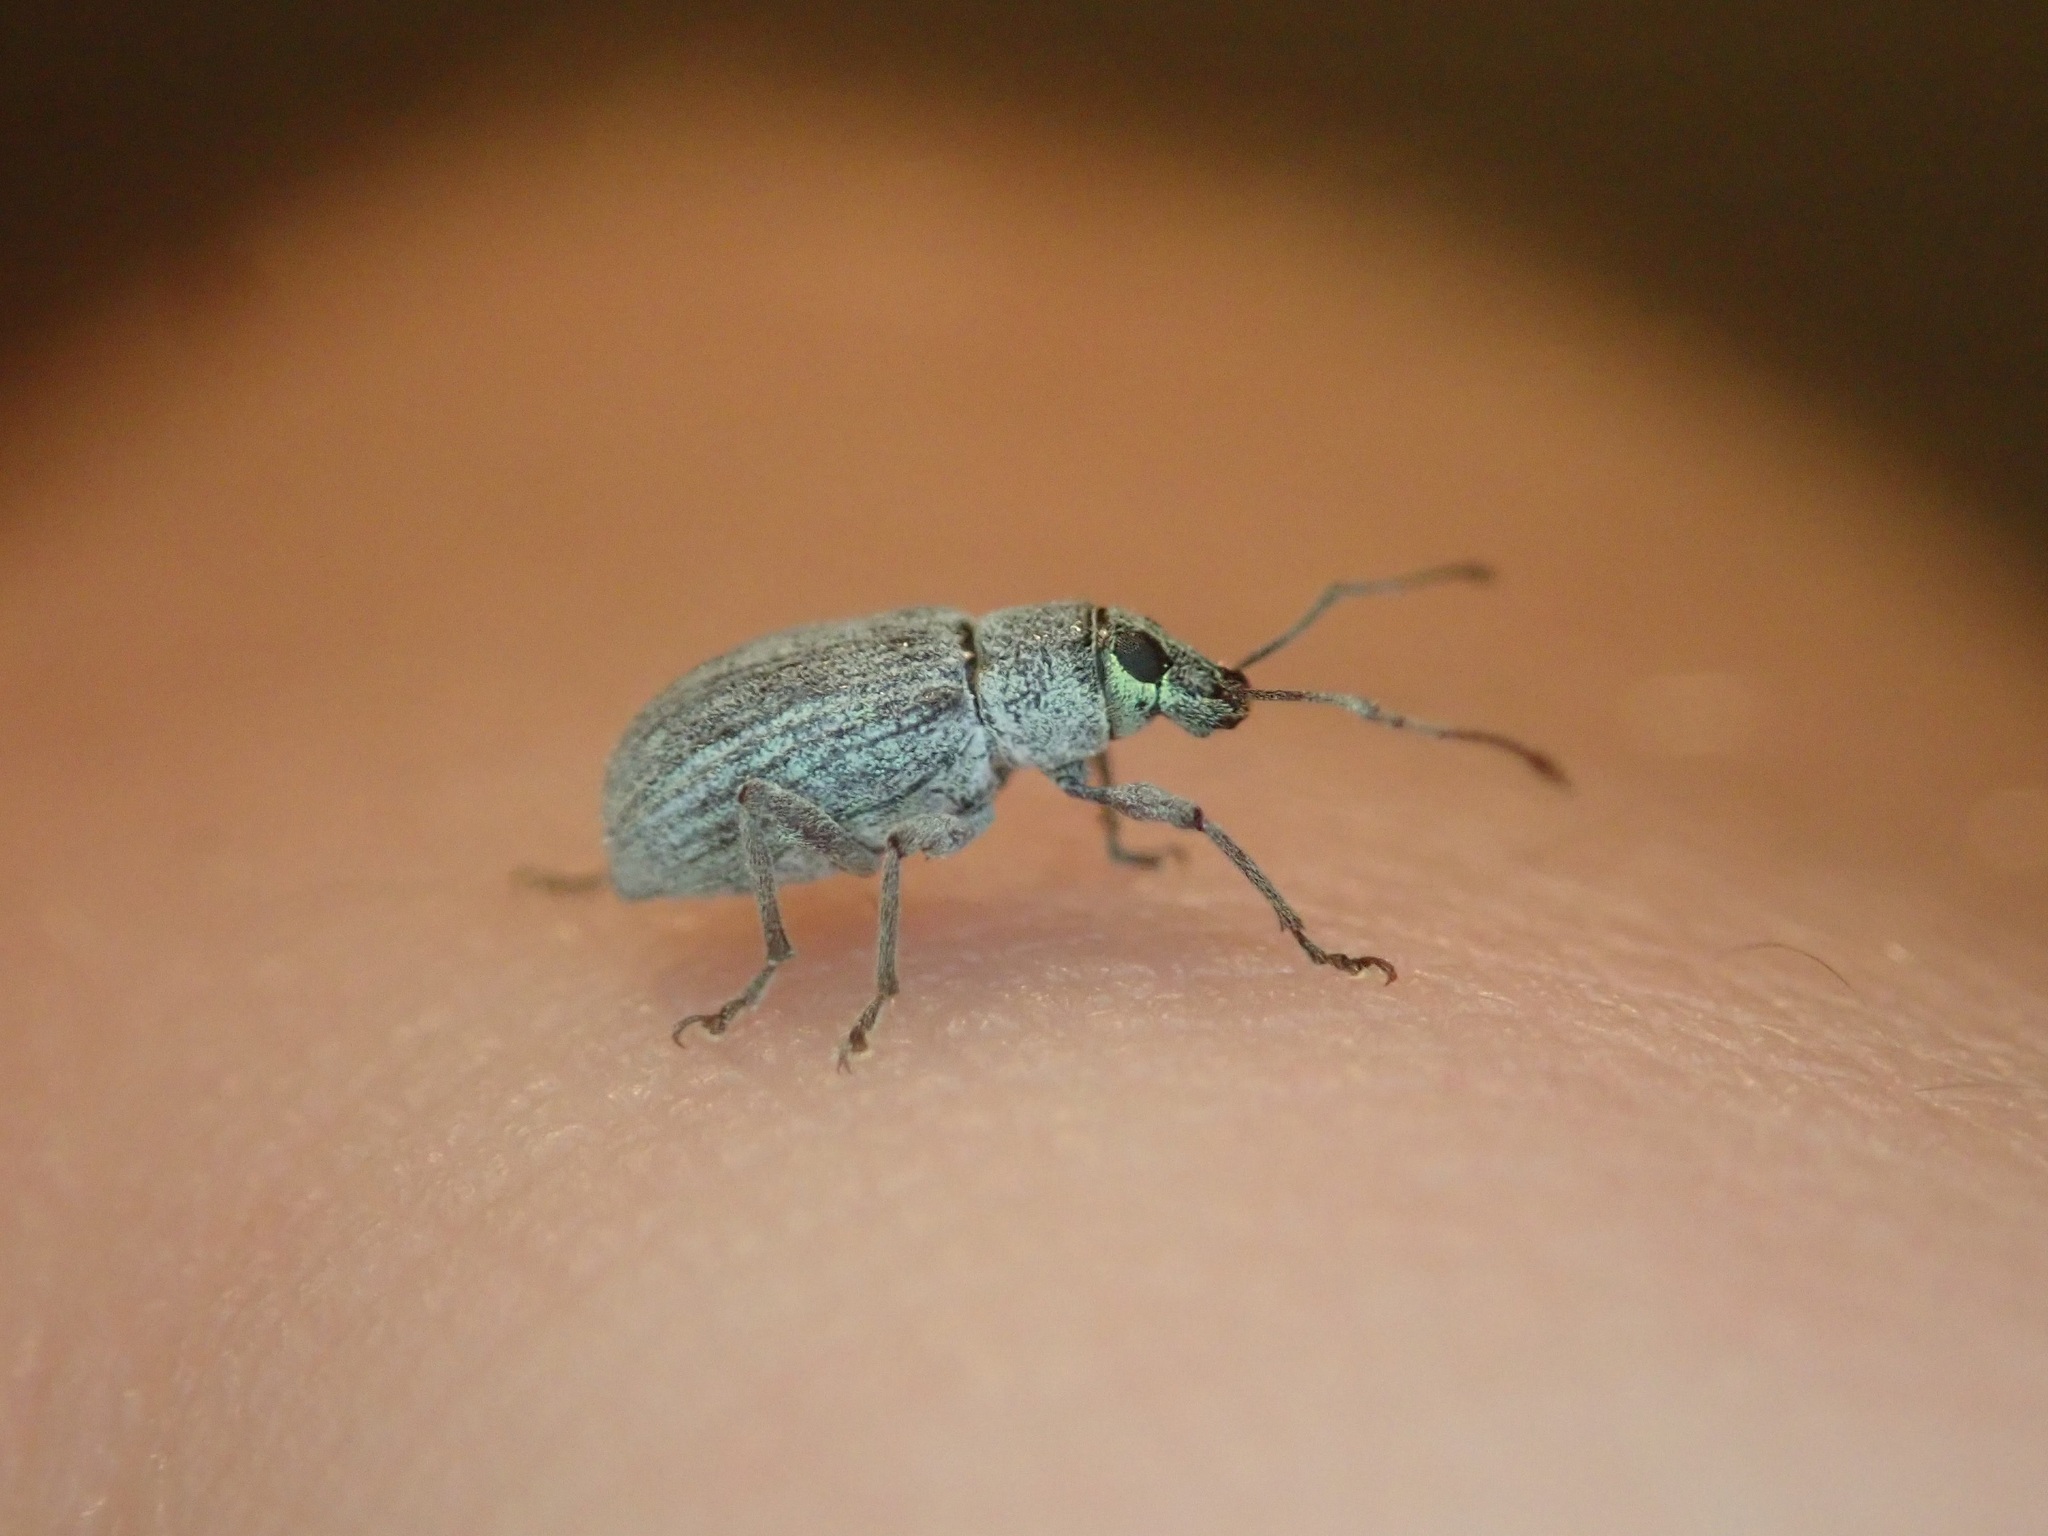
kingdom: Animalia
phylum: Arthropoda
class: Insecta
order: Coleoptera
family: Curculionidae
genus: Cyrtepistomus
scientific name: Cyrtepistomus castaneus
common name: Weevil
